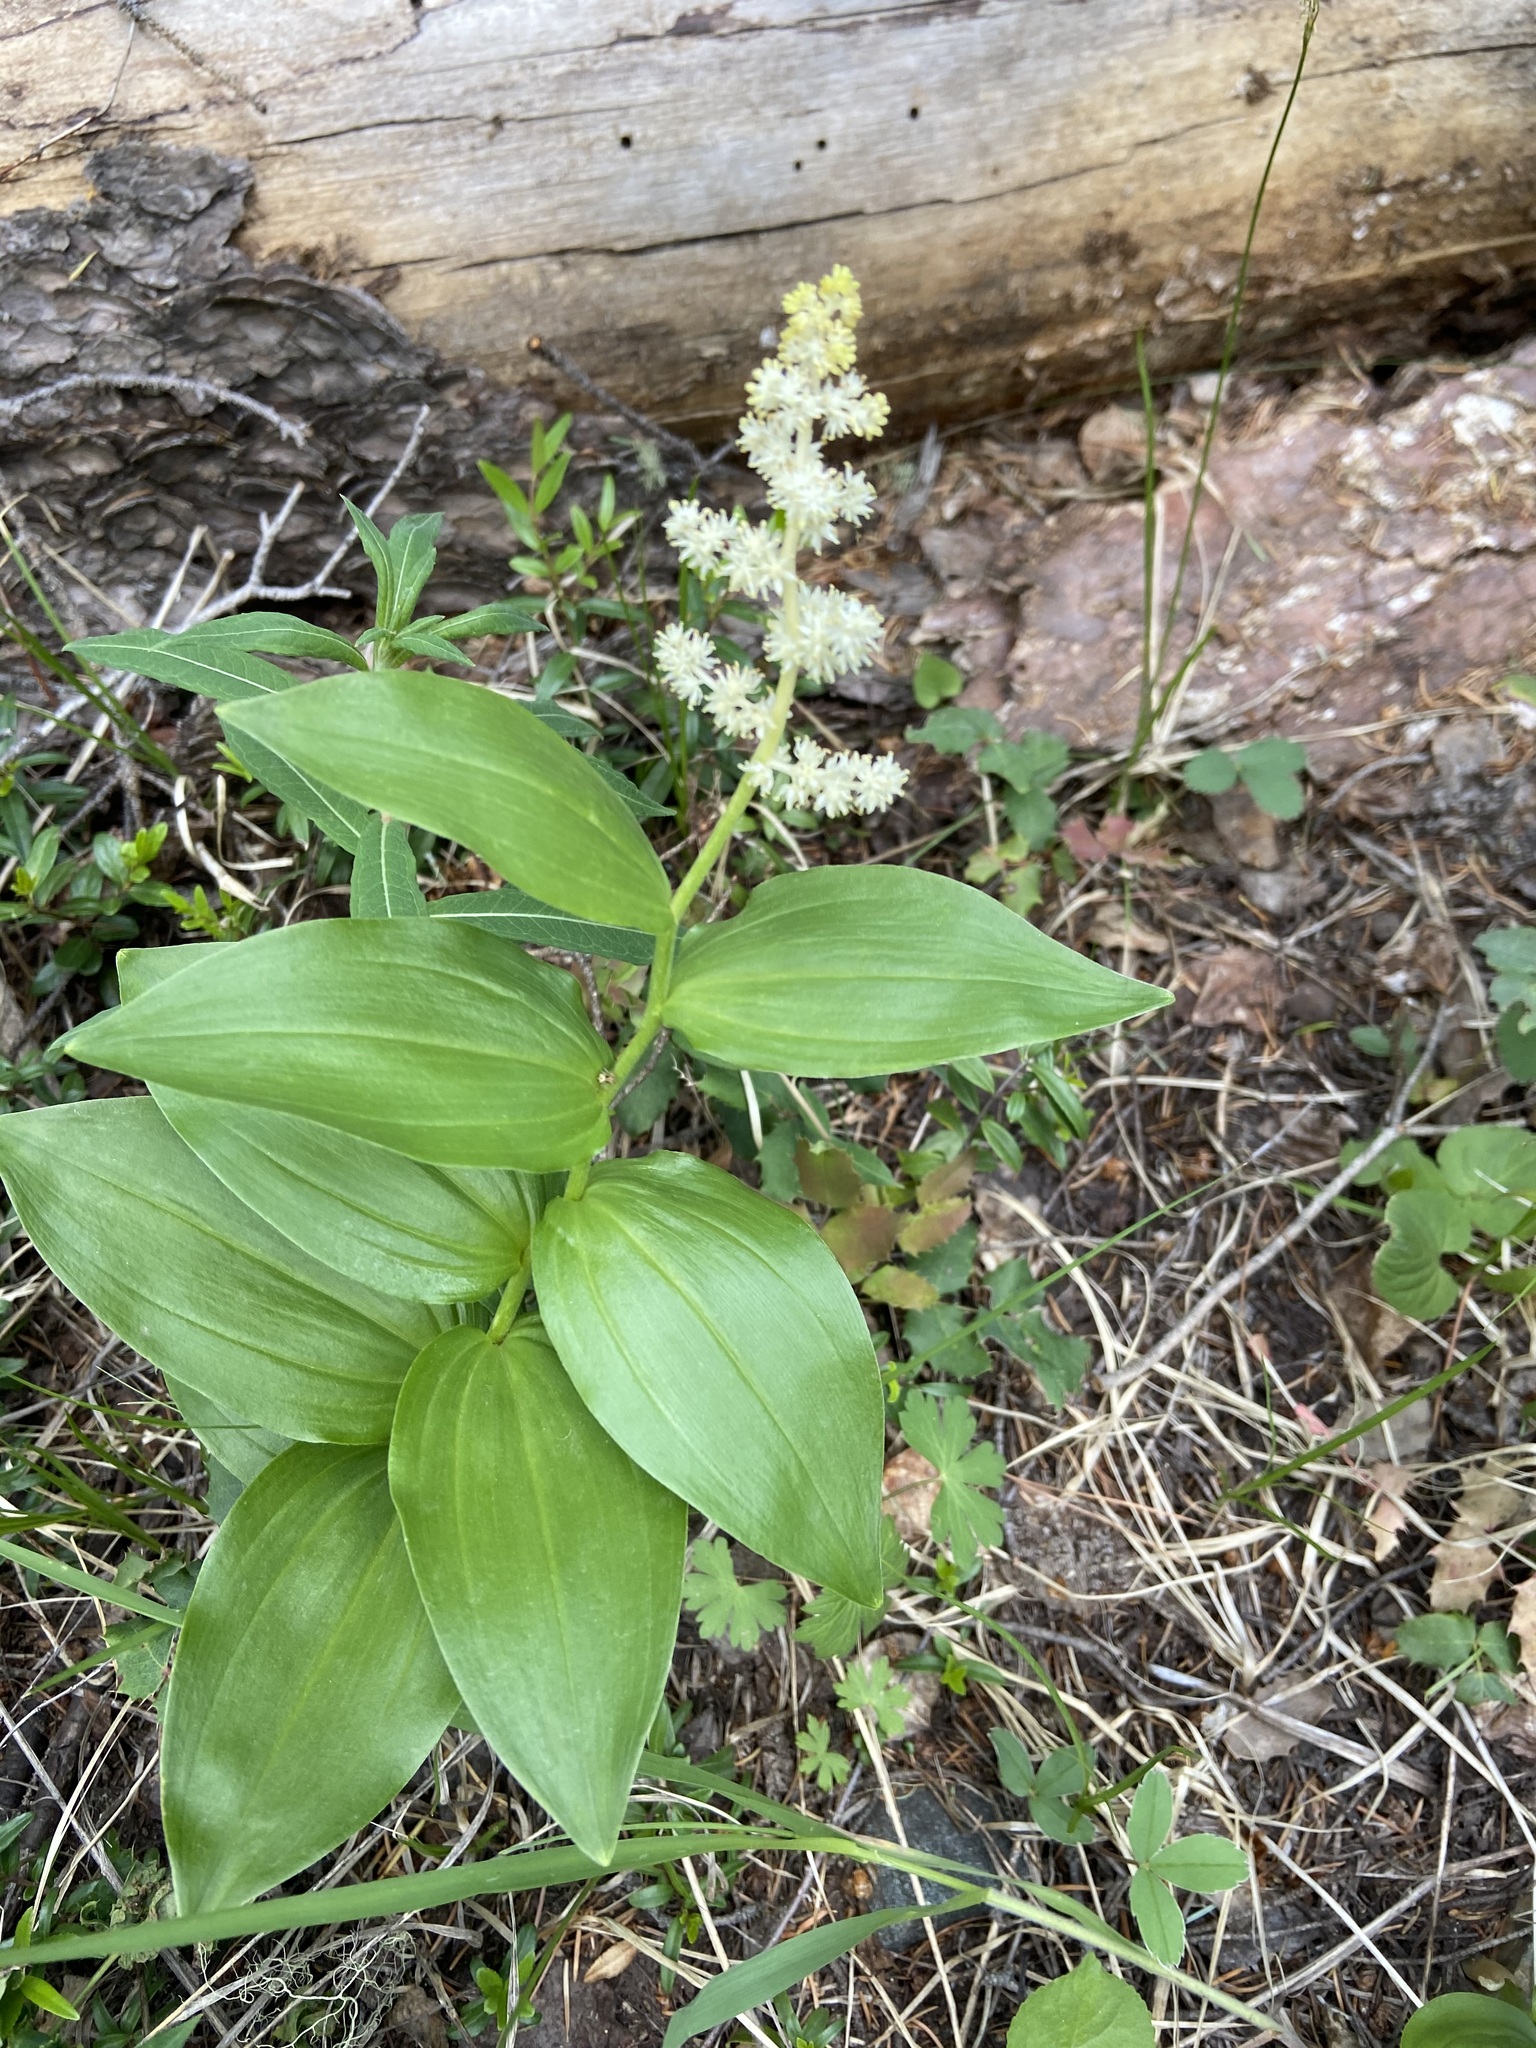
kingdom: Plantae
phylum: Tracheophyta
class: Liliopsida
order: Asparagales
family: Asparagaceae
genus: Maianthemum
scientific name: Maianthemum racemosum
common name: False spikenard
